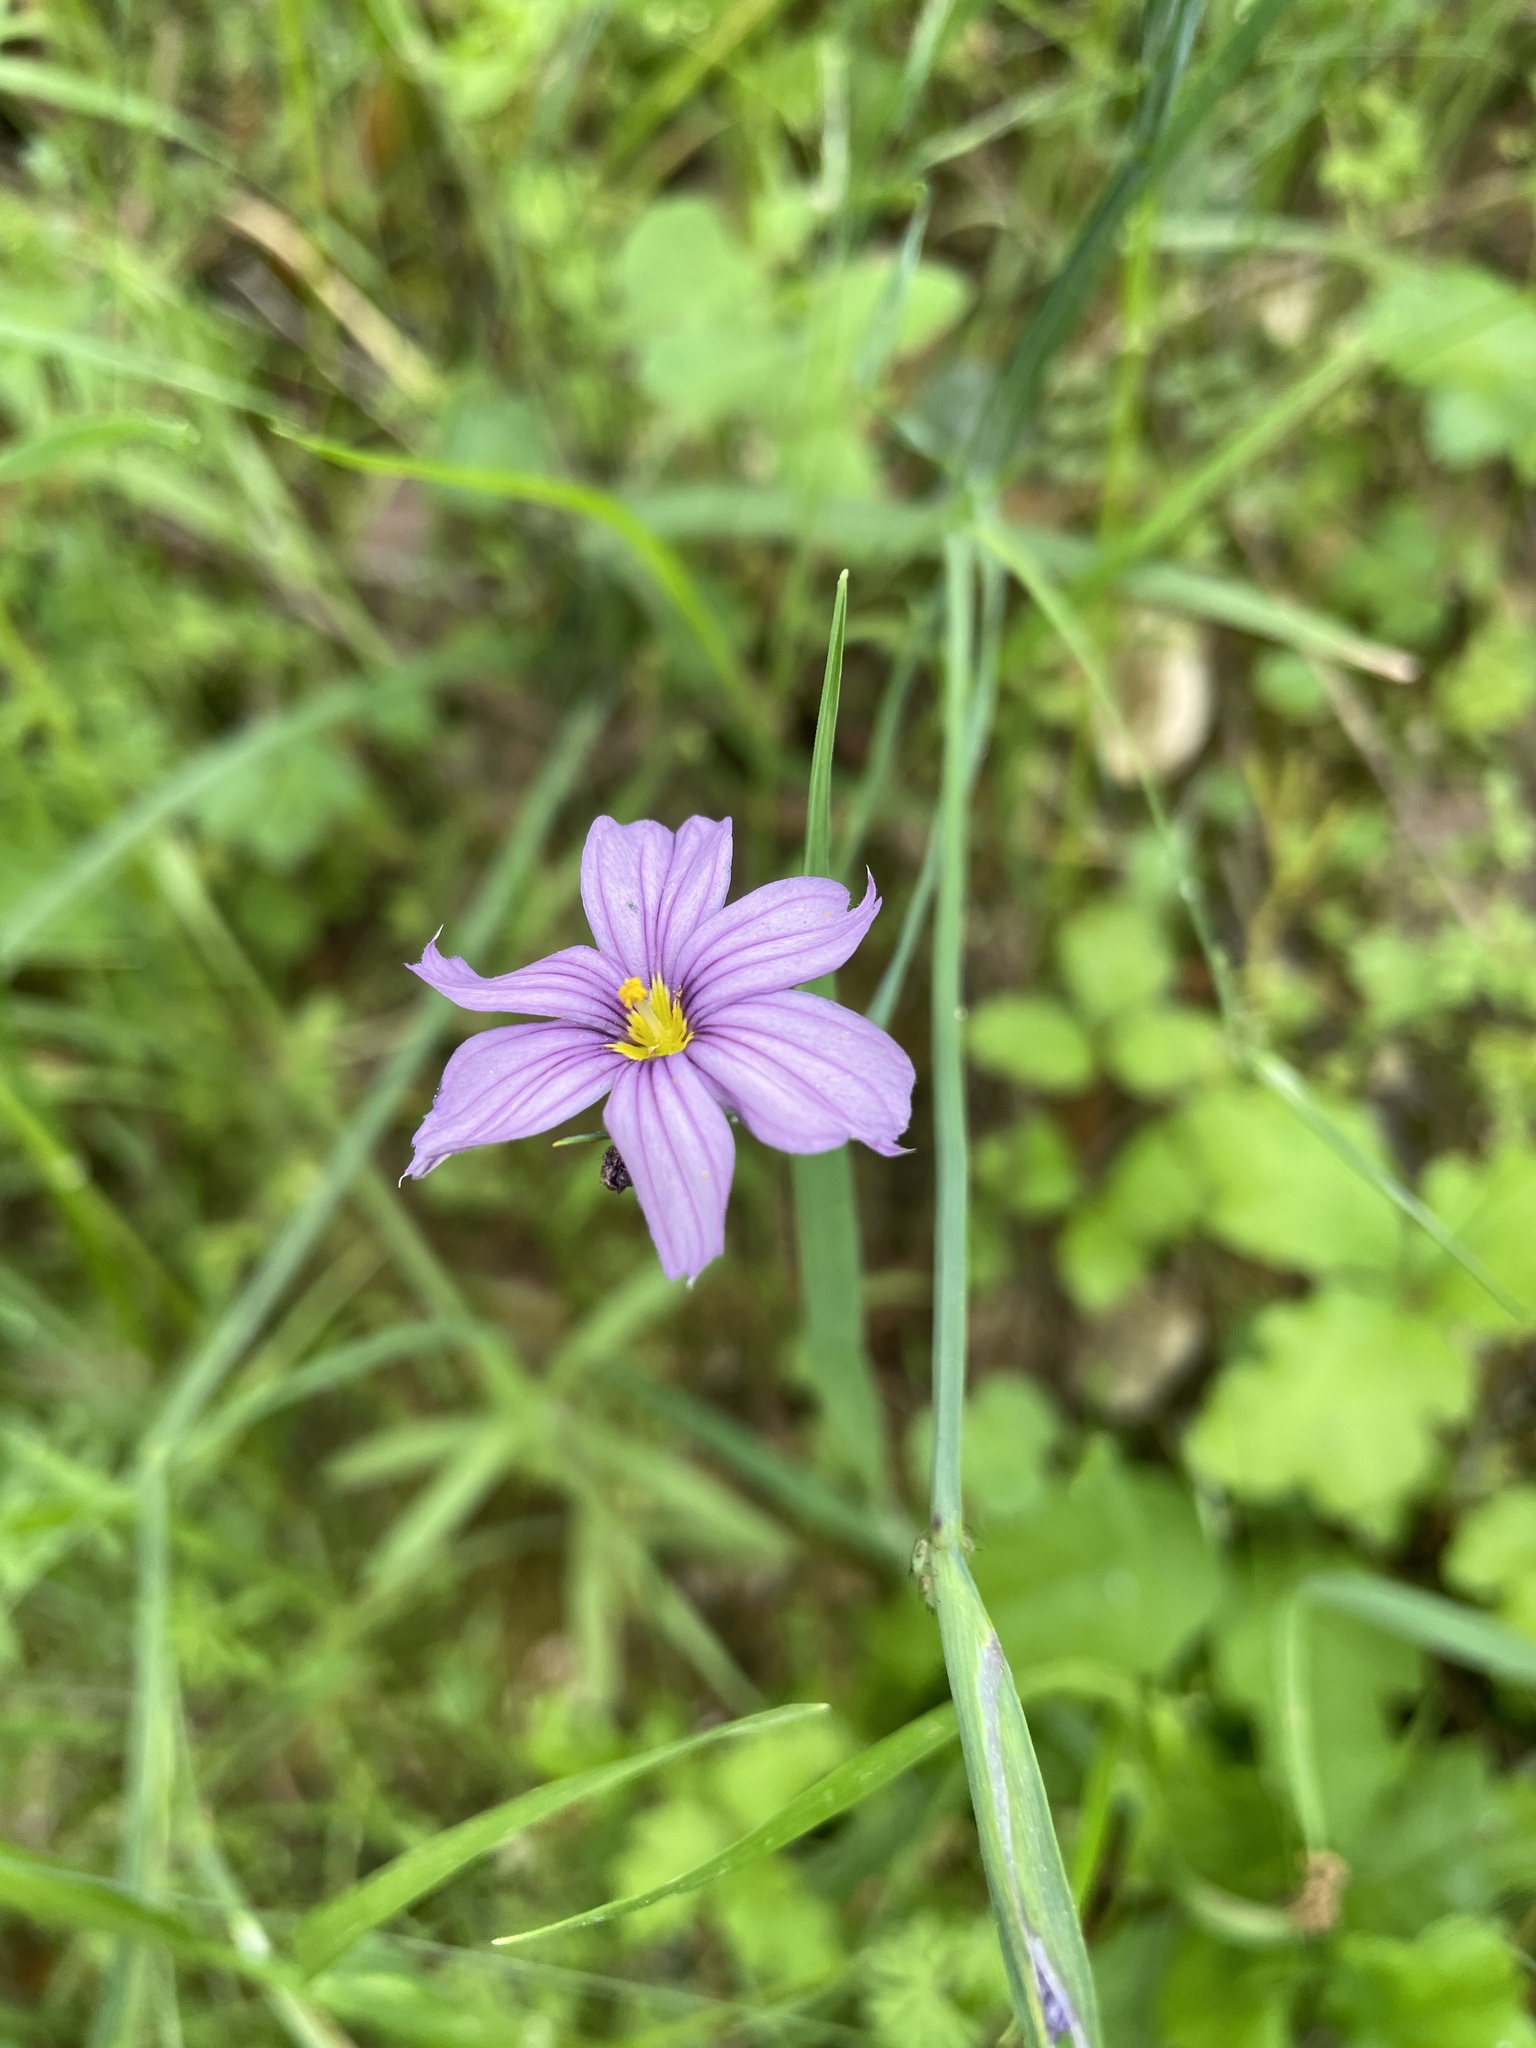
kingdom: Plantae
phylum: Tracheophyta
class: Liliopsida
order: Asparagales
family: Iridaceae
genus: Sisyrinchium
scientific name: Sisyrinchium bellum
